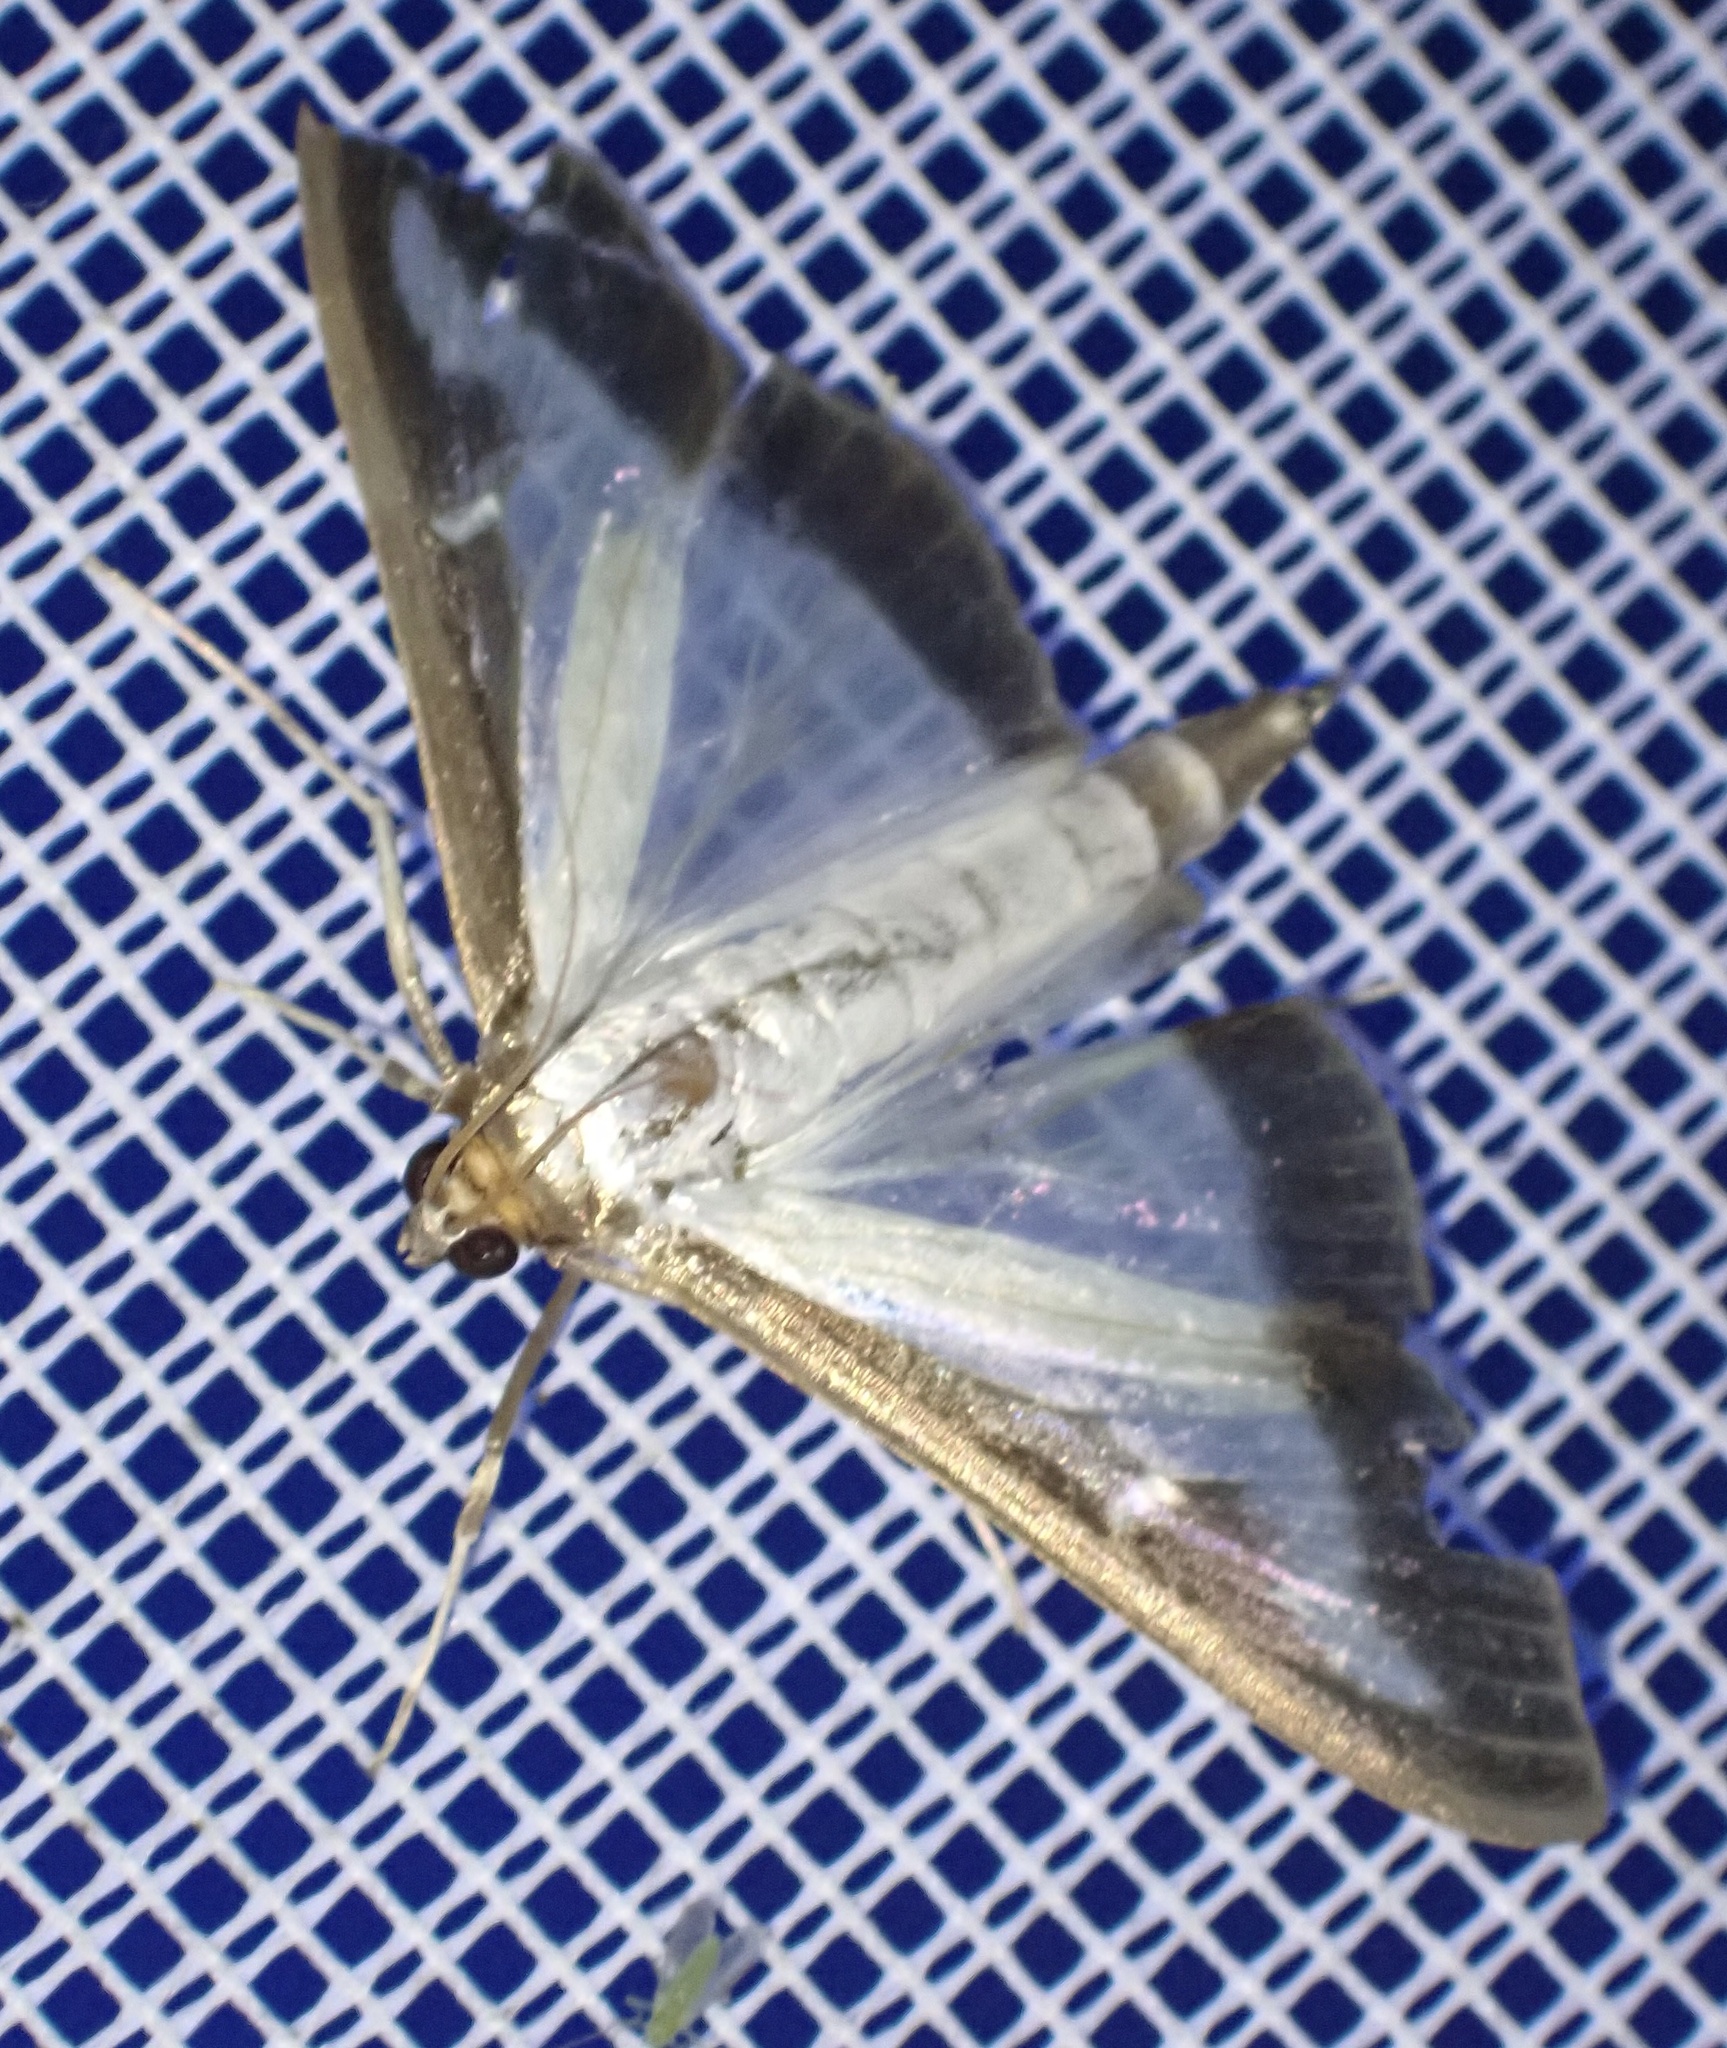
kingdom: Animalia
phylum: Arthropoda
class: Insecta
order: Lepidoptera
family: Crambidae
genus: Cydalima
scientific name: Cydalima perspectalis
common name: Box tree moth
